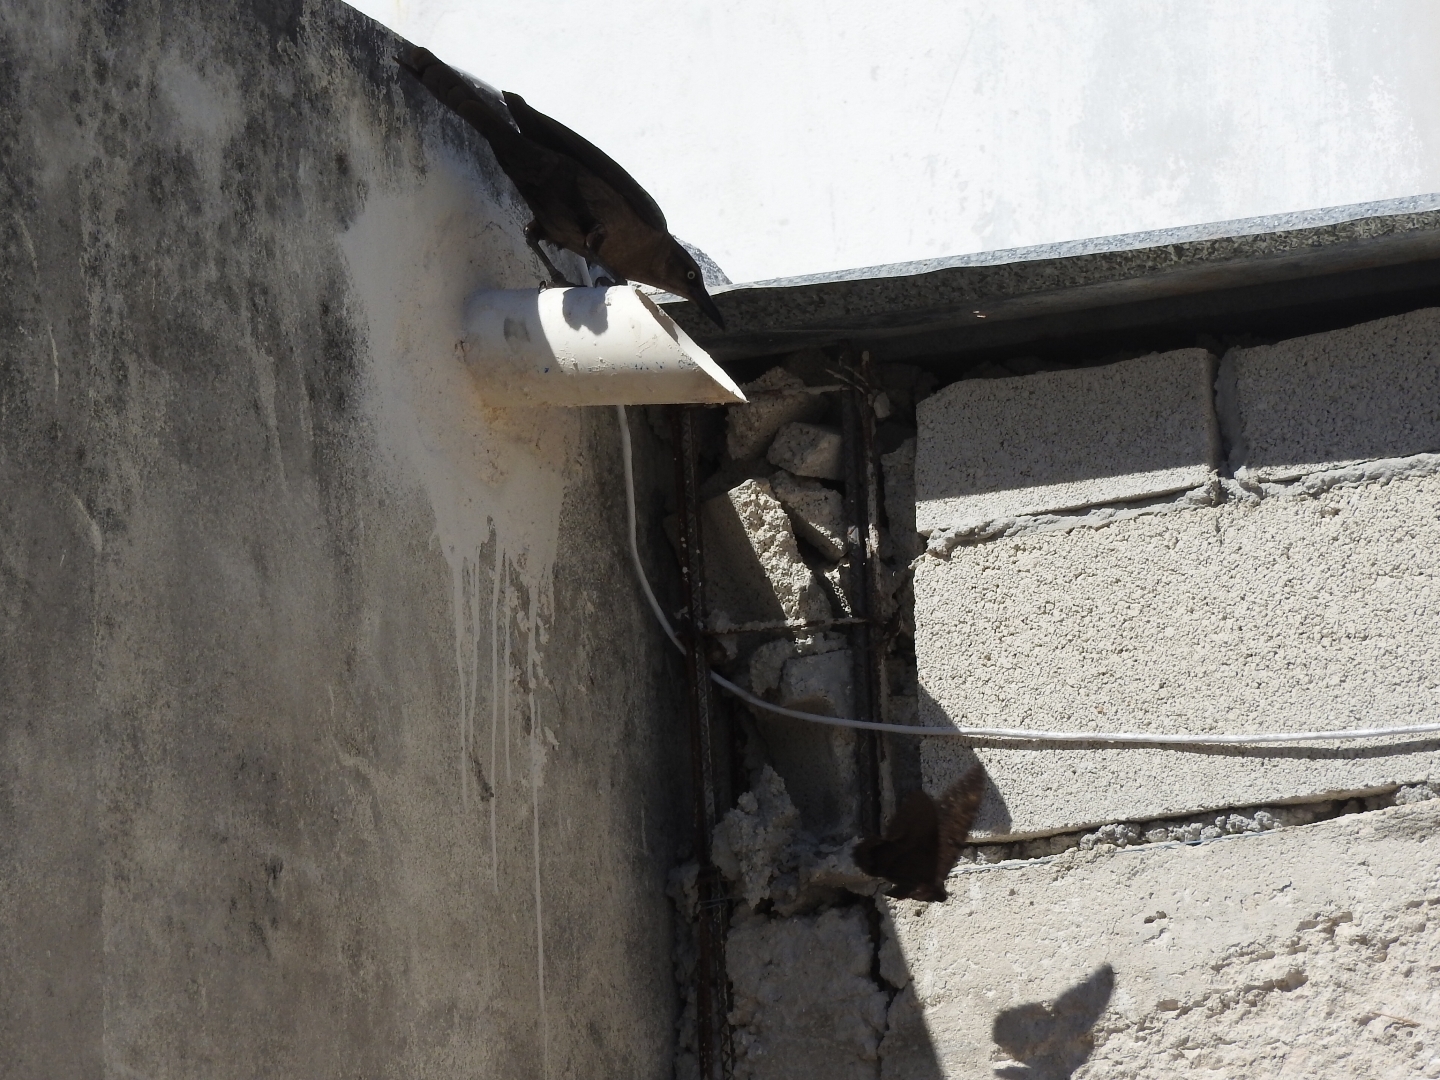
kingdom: Animalia
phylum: Arthropoda
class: Insecta
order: Lepidoptera
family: Erebidae
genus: Ascalapha
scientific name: Ascalapha odorata
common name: Black witch
